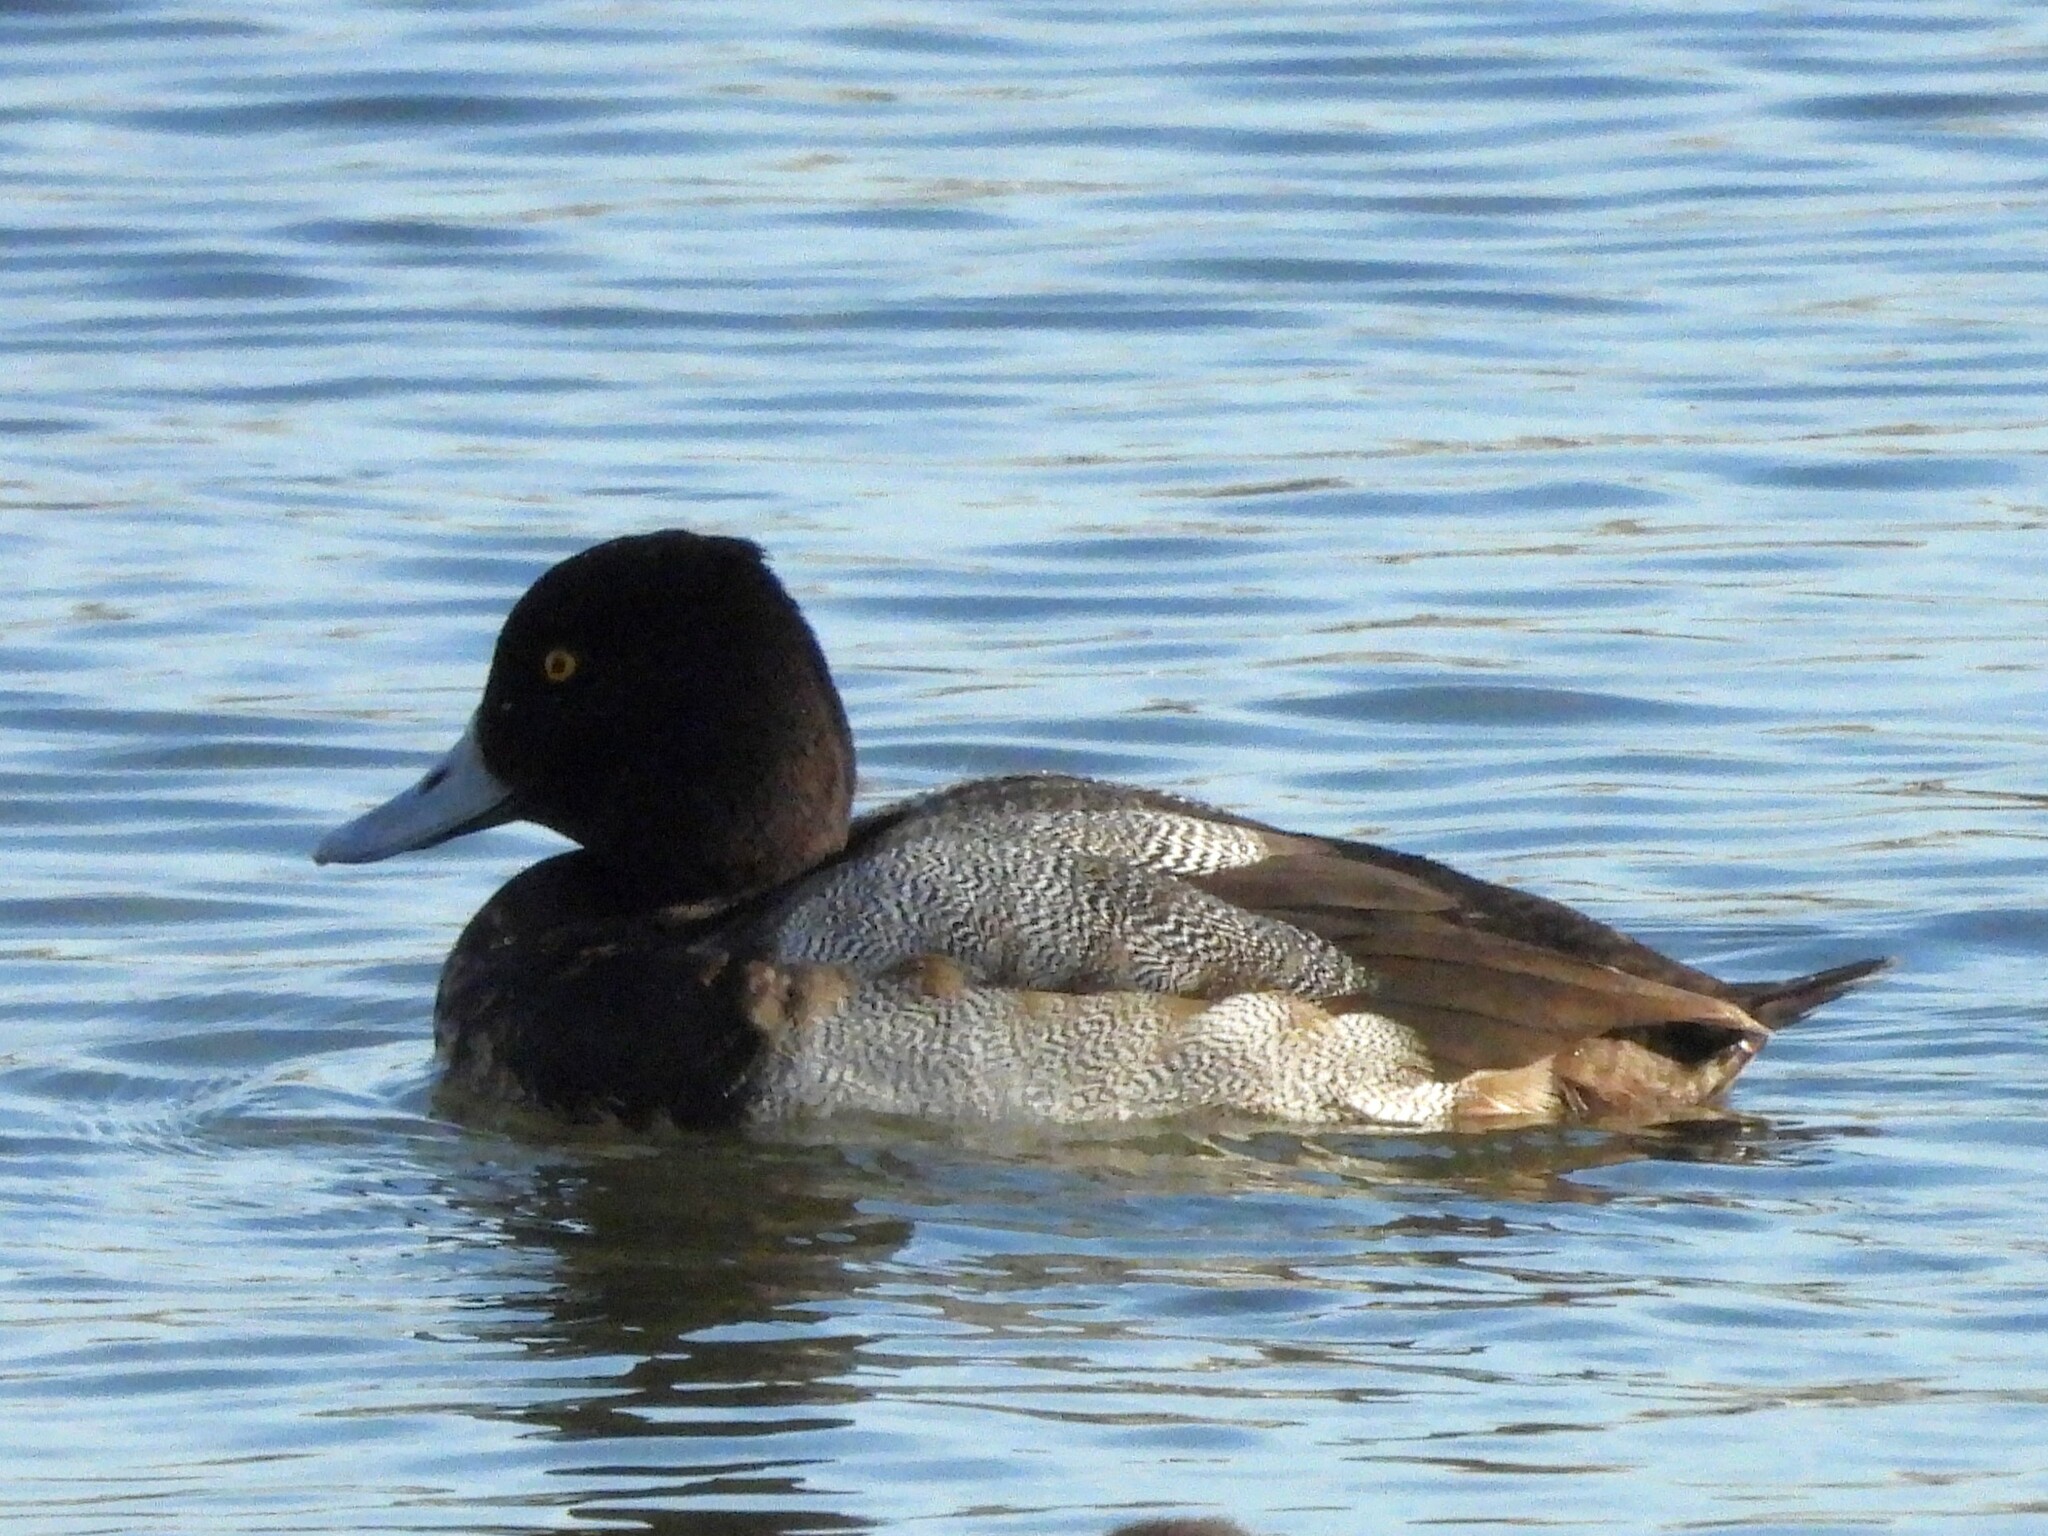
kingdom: Animalia
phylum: Chordata
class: Aves
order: Anseriformes
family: Anatidae
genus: Aythya
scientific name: Aythya affinis
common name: Lesser scaup
